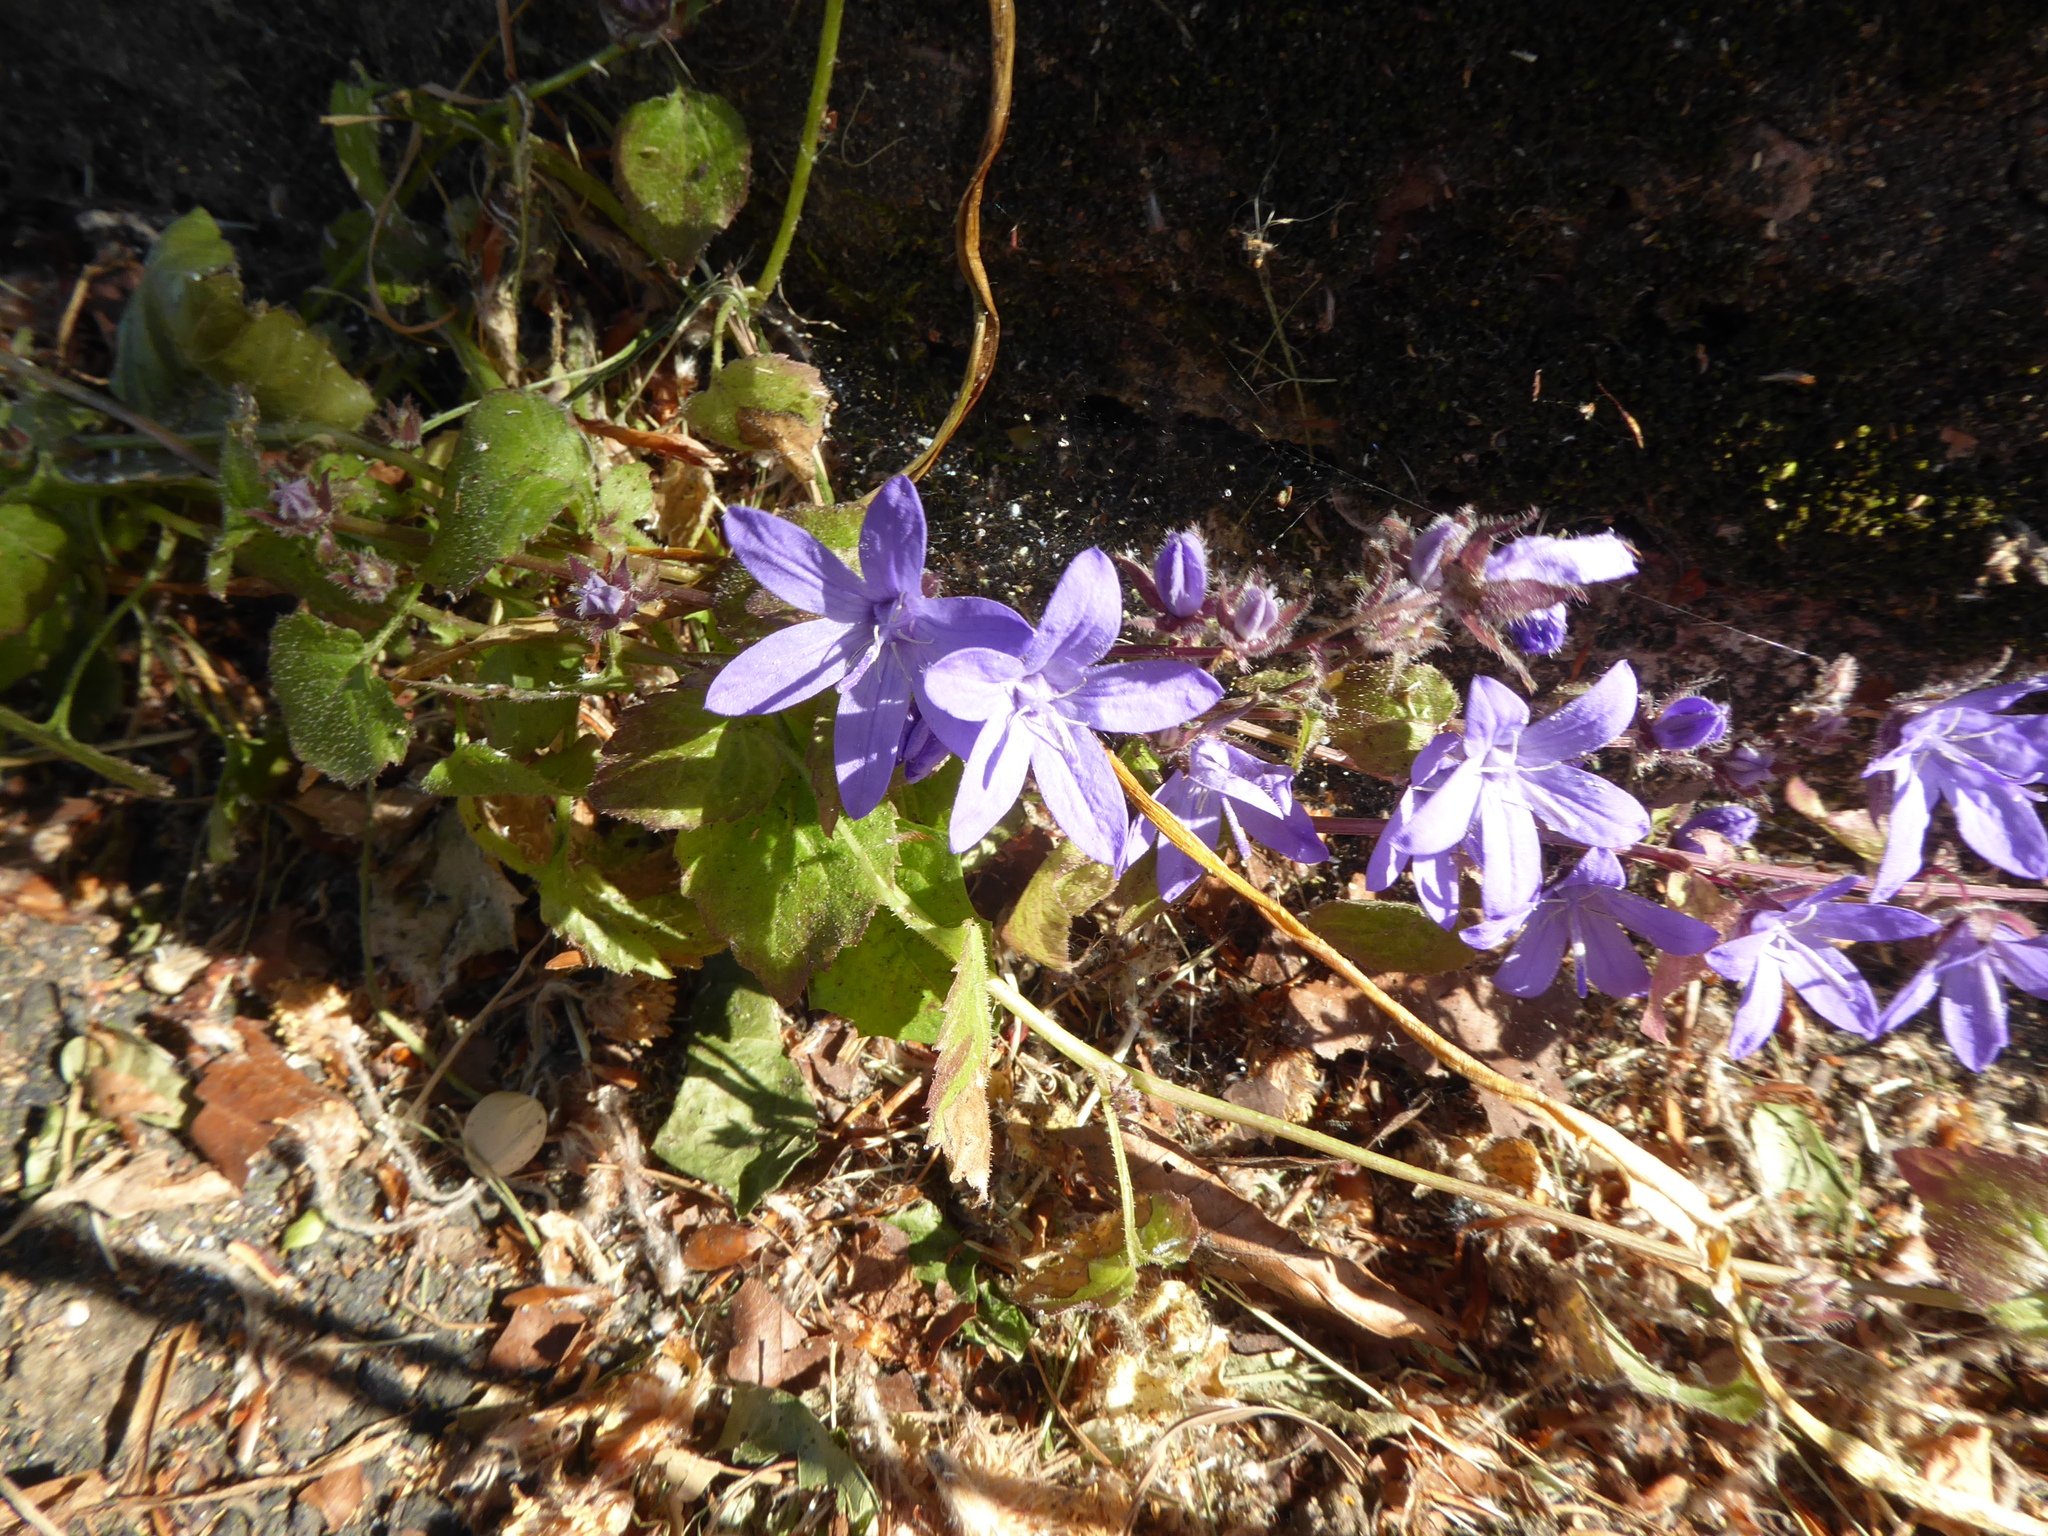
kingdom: Plantae
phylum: Tracheophyta
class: Magnoliopsida
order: Asterales
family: Campanulaceae
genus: Campanula
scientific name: Campanula poscharskyana
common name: Trailing bellflower
